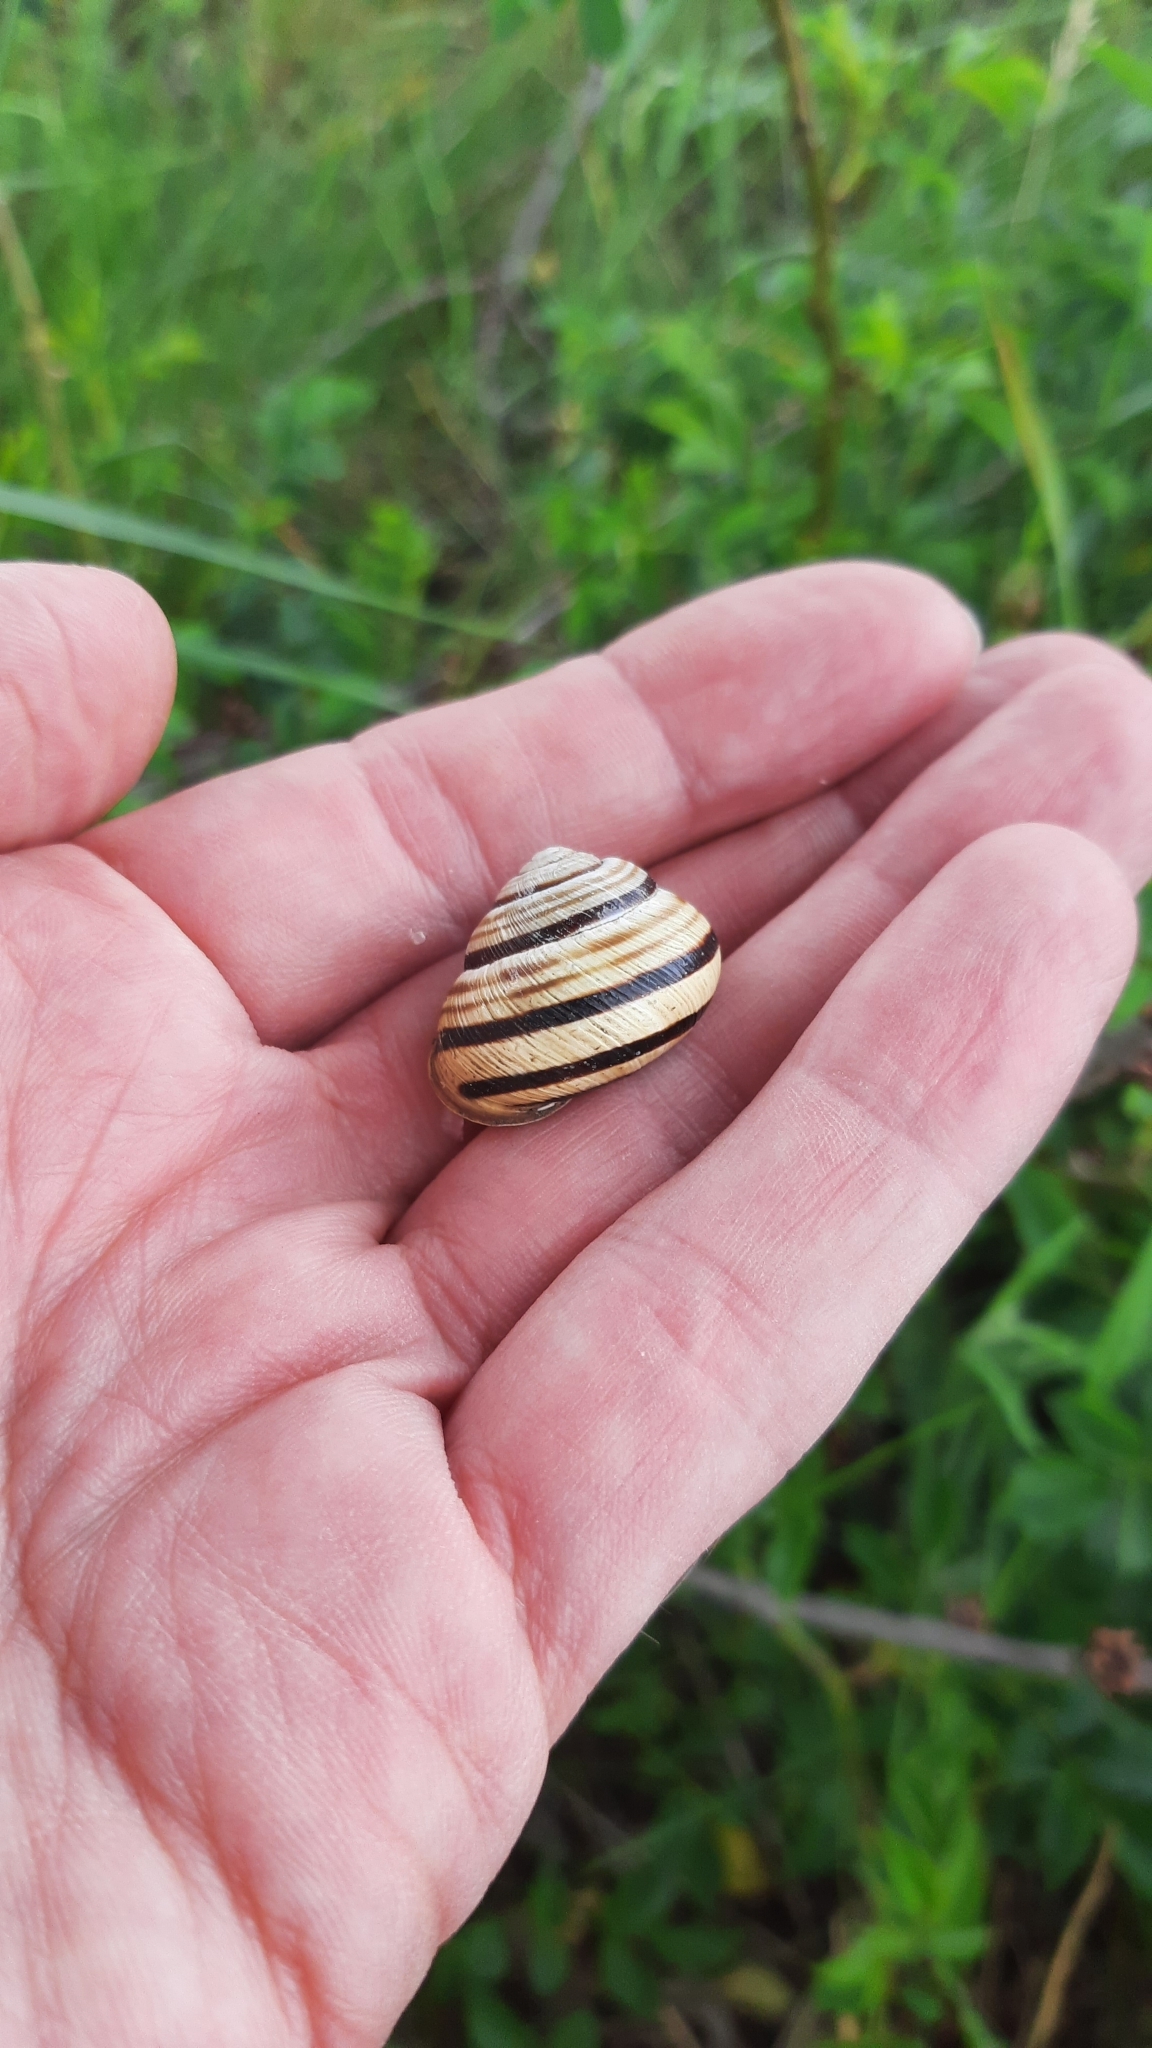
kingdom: Animalia
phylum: Mollusca
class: Gastropoda
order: Stylommatophora
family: Helicidae
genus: Caucasotachea
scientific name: Caucasotachea vindobonensis
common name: European helicid land snail
